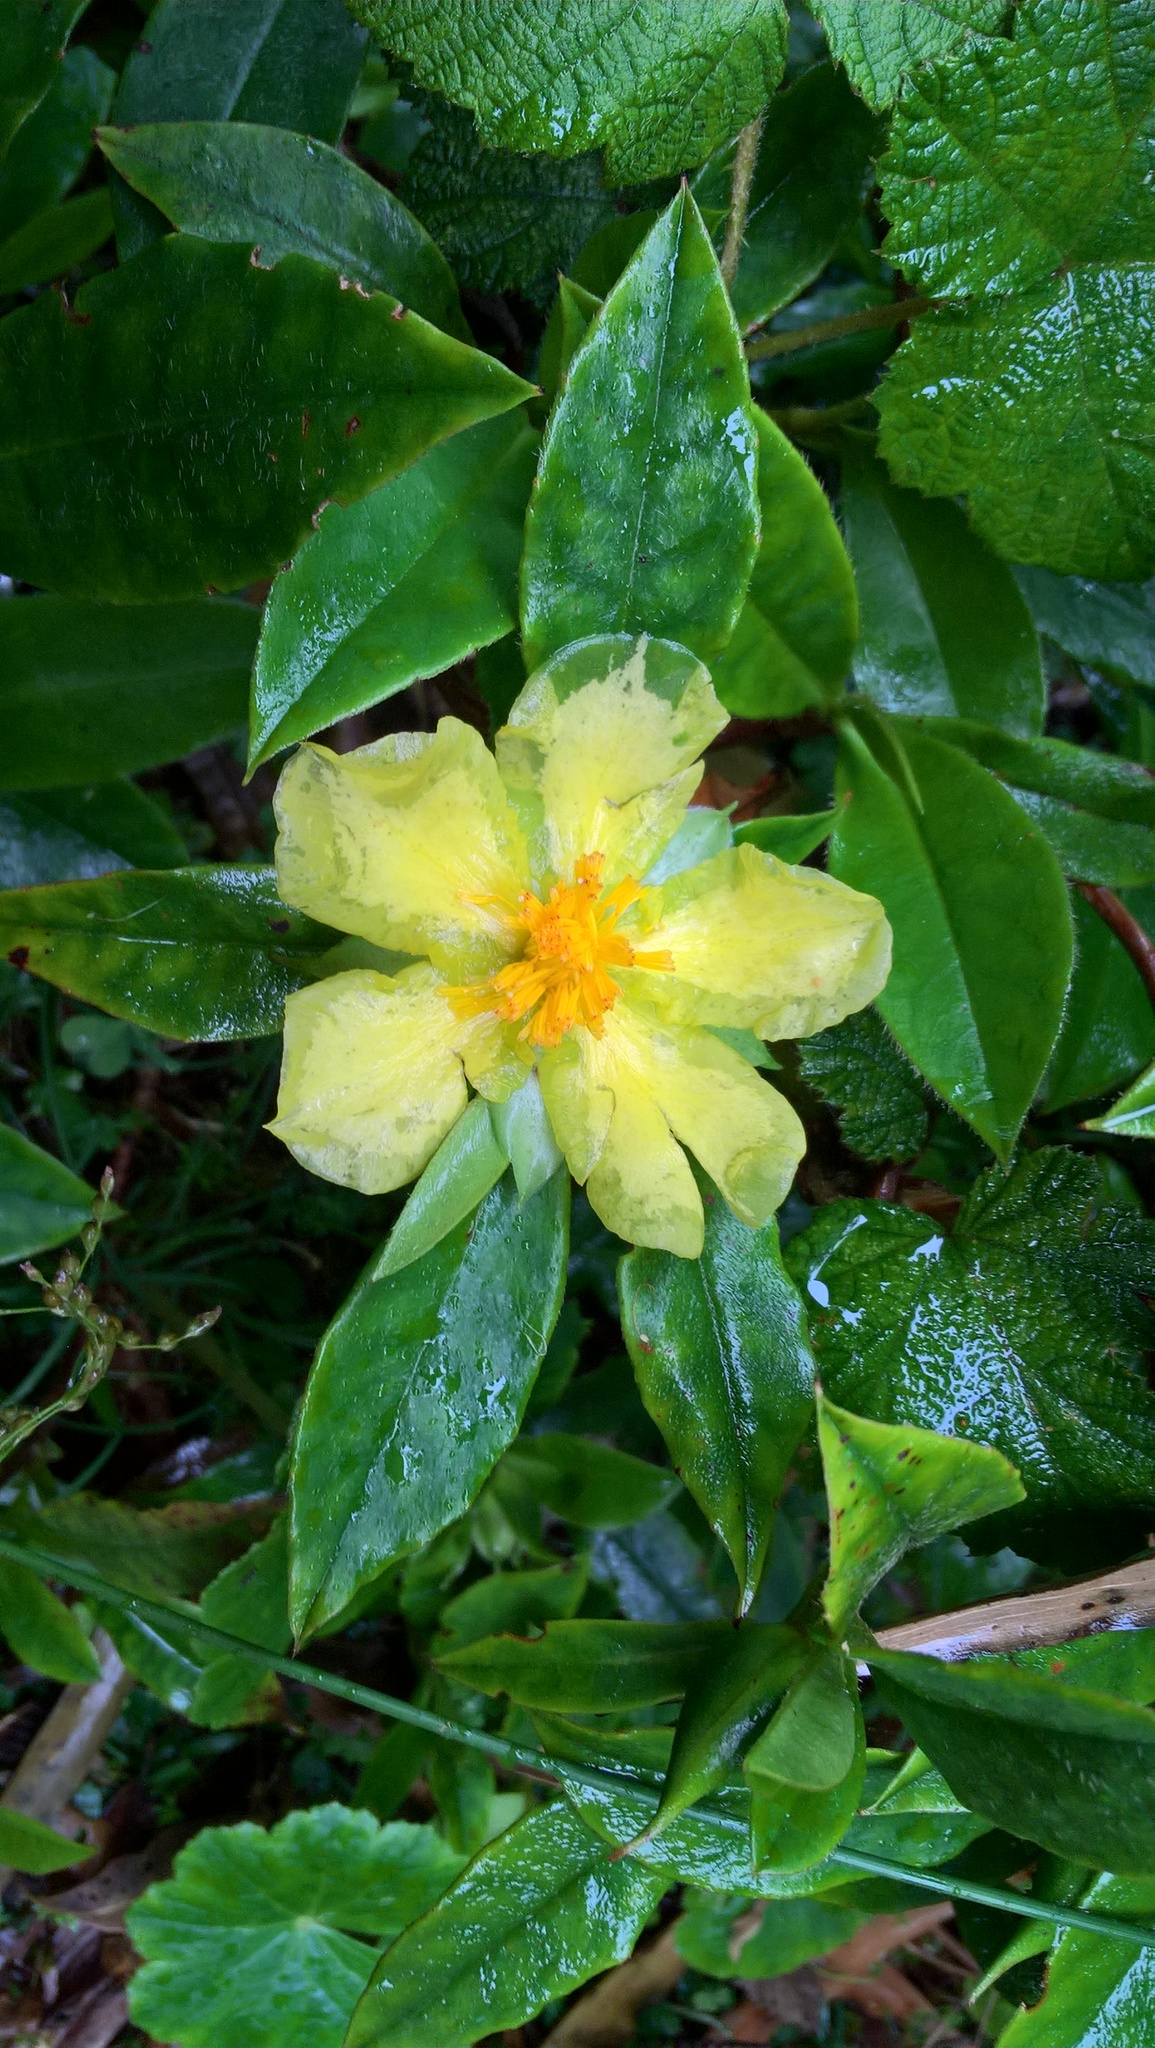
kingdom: Plantae
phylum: Tracheophyta
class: Magnoliopsida
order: Dilleniales
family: Dilleniaceae
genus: Hibbertia
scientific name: Hibbertia scandens
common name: Climbing guinea-flower
